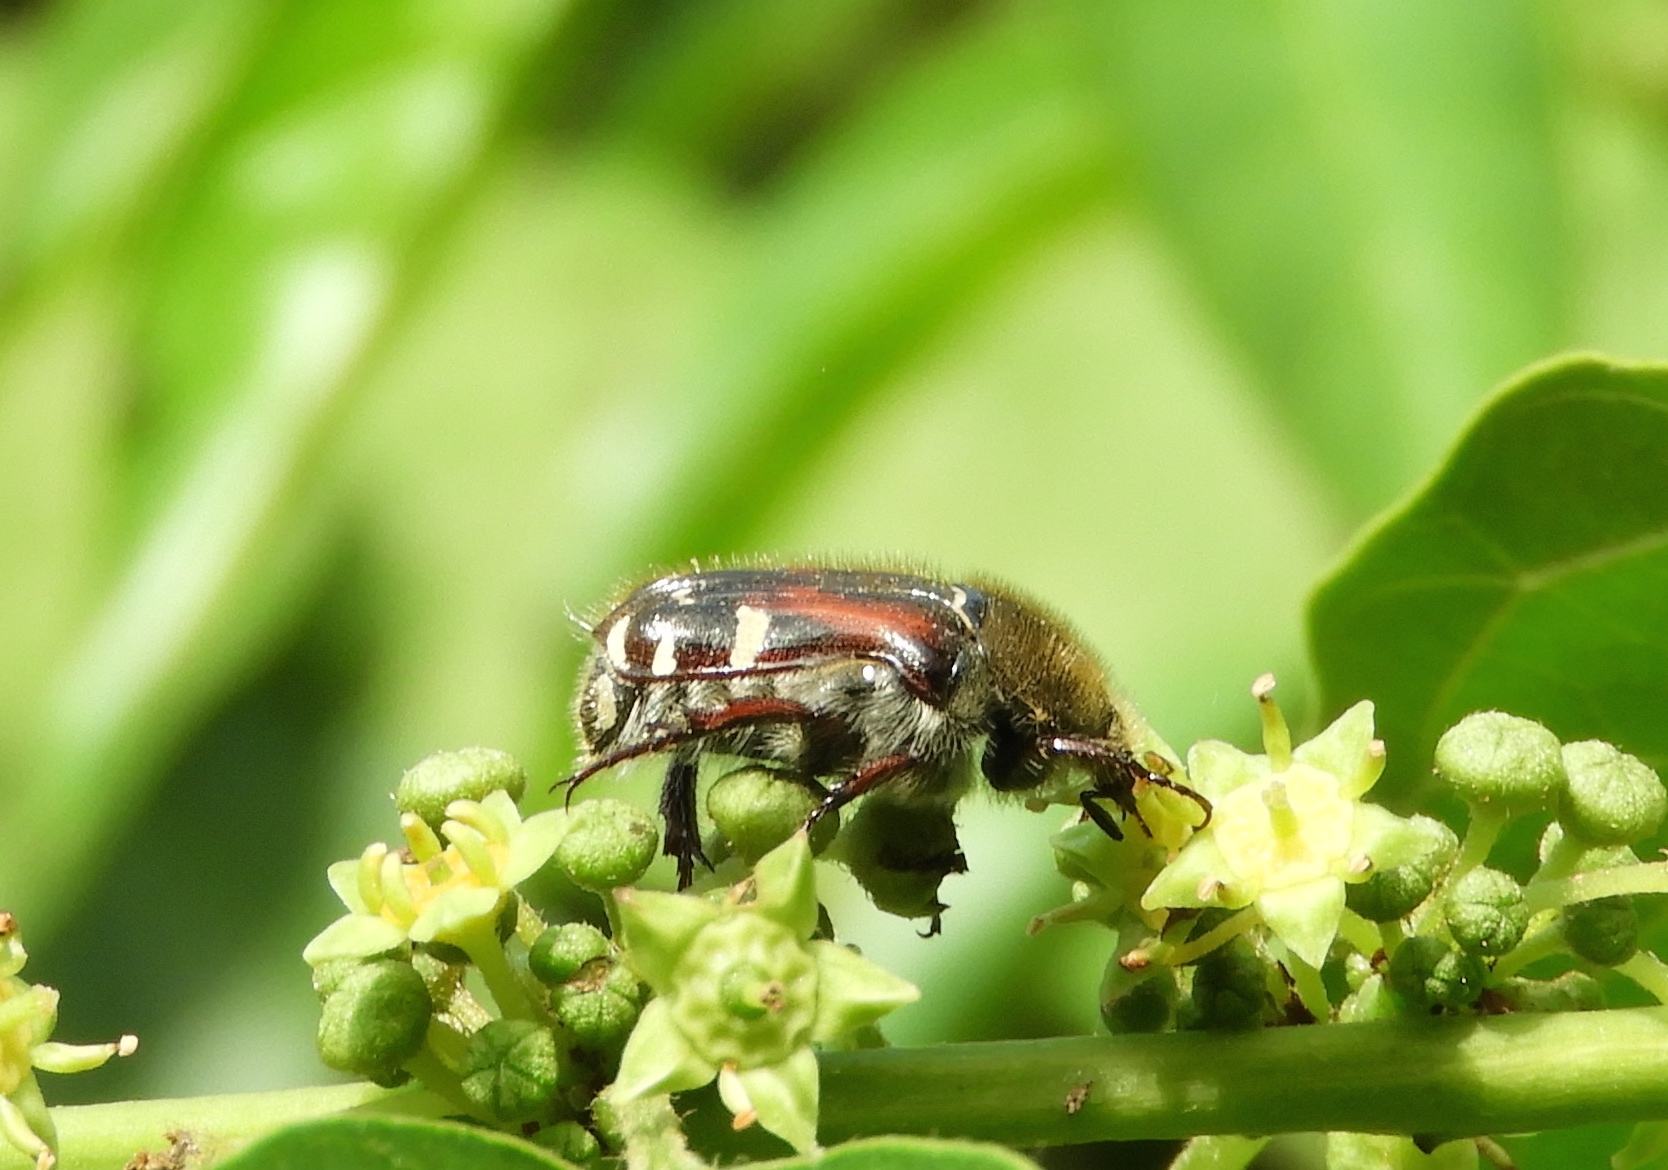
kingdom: Animalia
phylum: Arthropoda
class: Insecta
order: Coleoptera
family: Scarabaeidae
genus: Euphoria
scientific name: Euphoria pulchella
